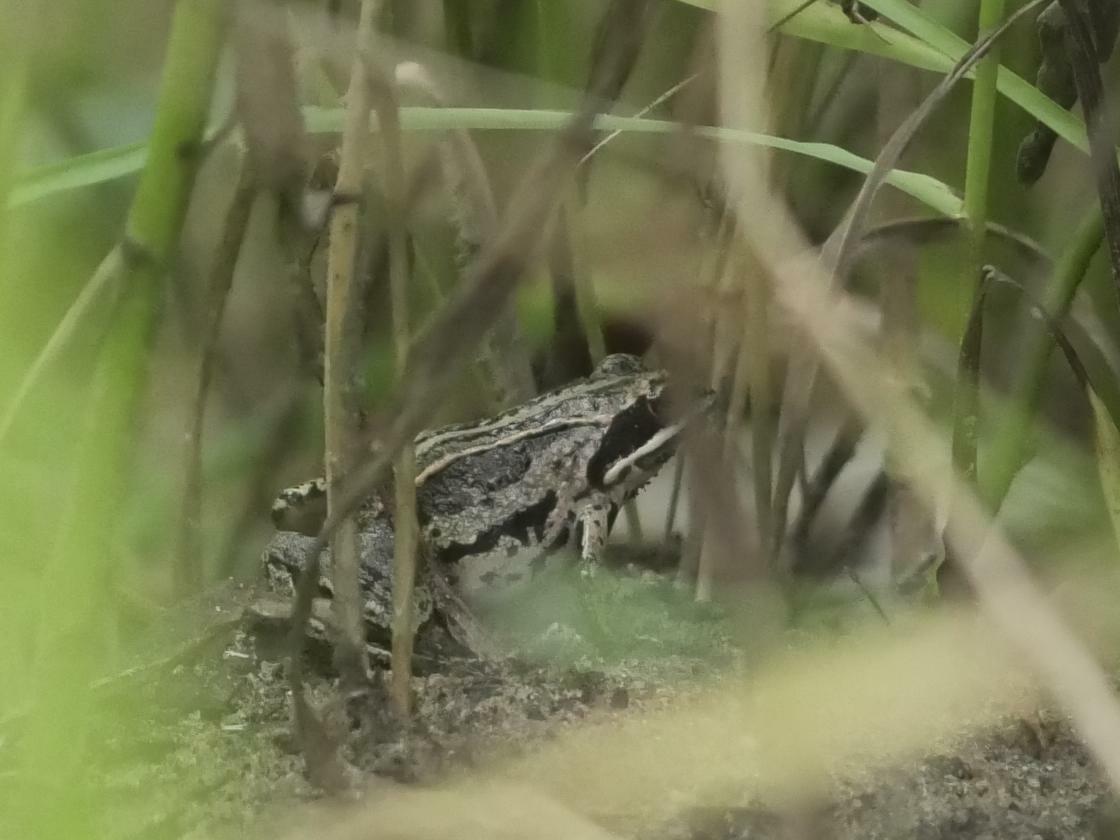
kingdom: Animalia
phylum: Chordata
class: Amphibia
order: Anura
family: Ranidae
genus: Rana
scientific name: Rana arvalis
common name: Moor frog
